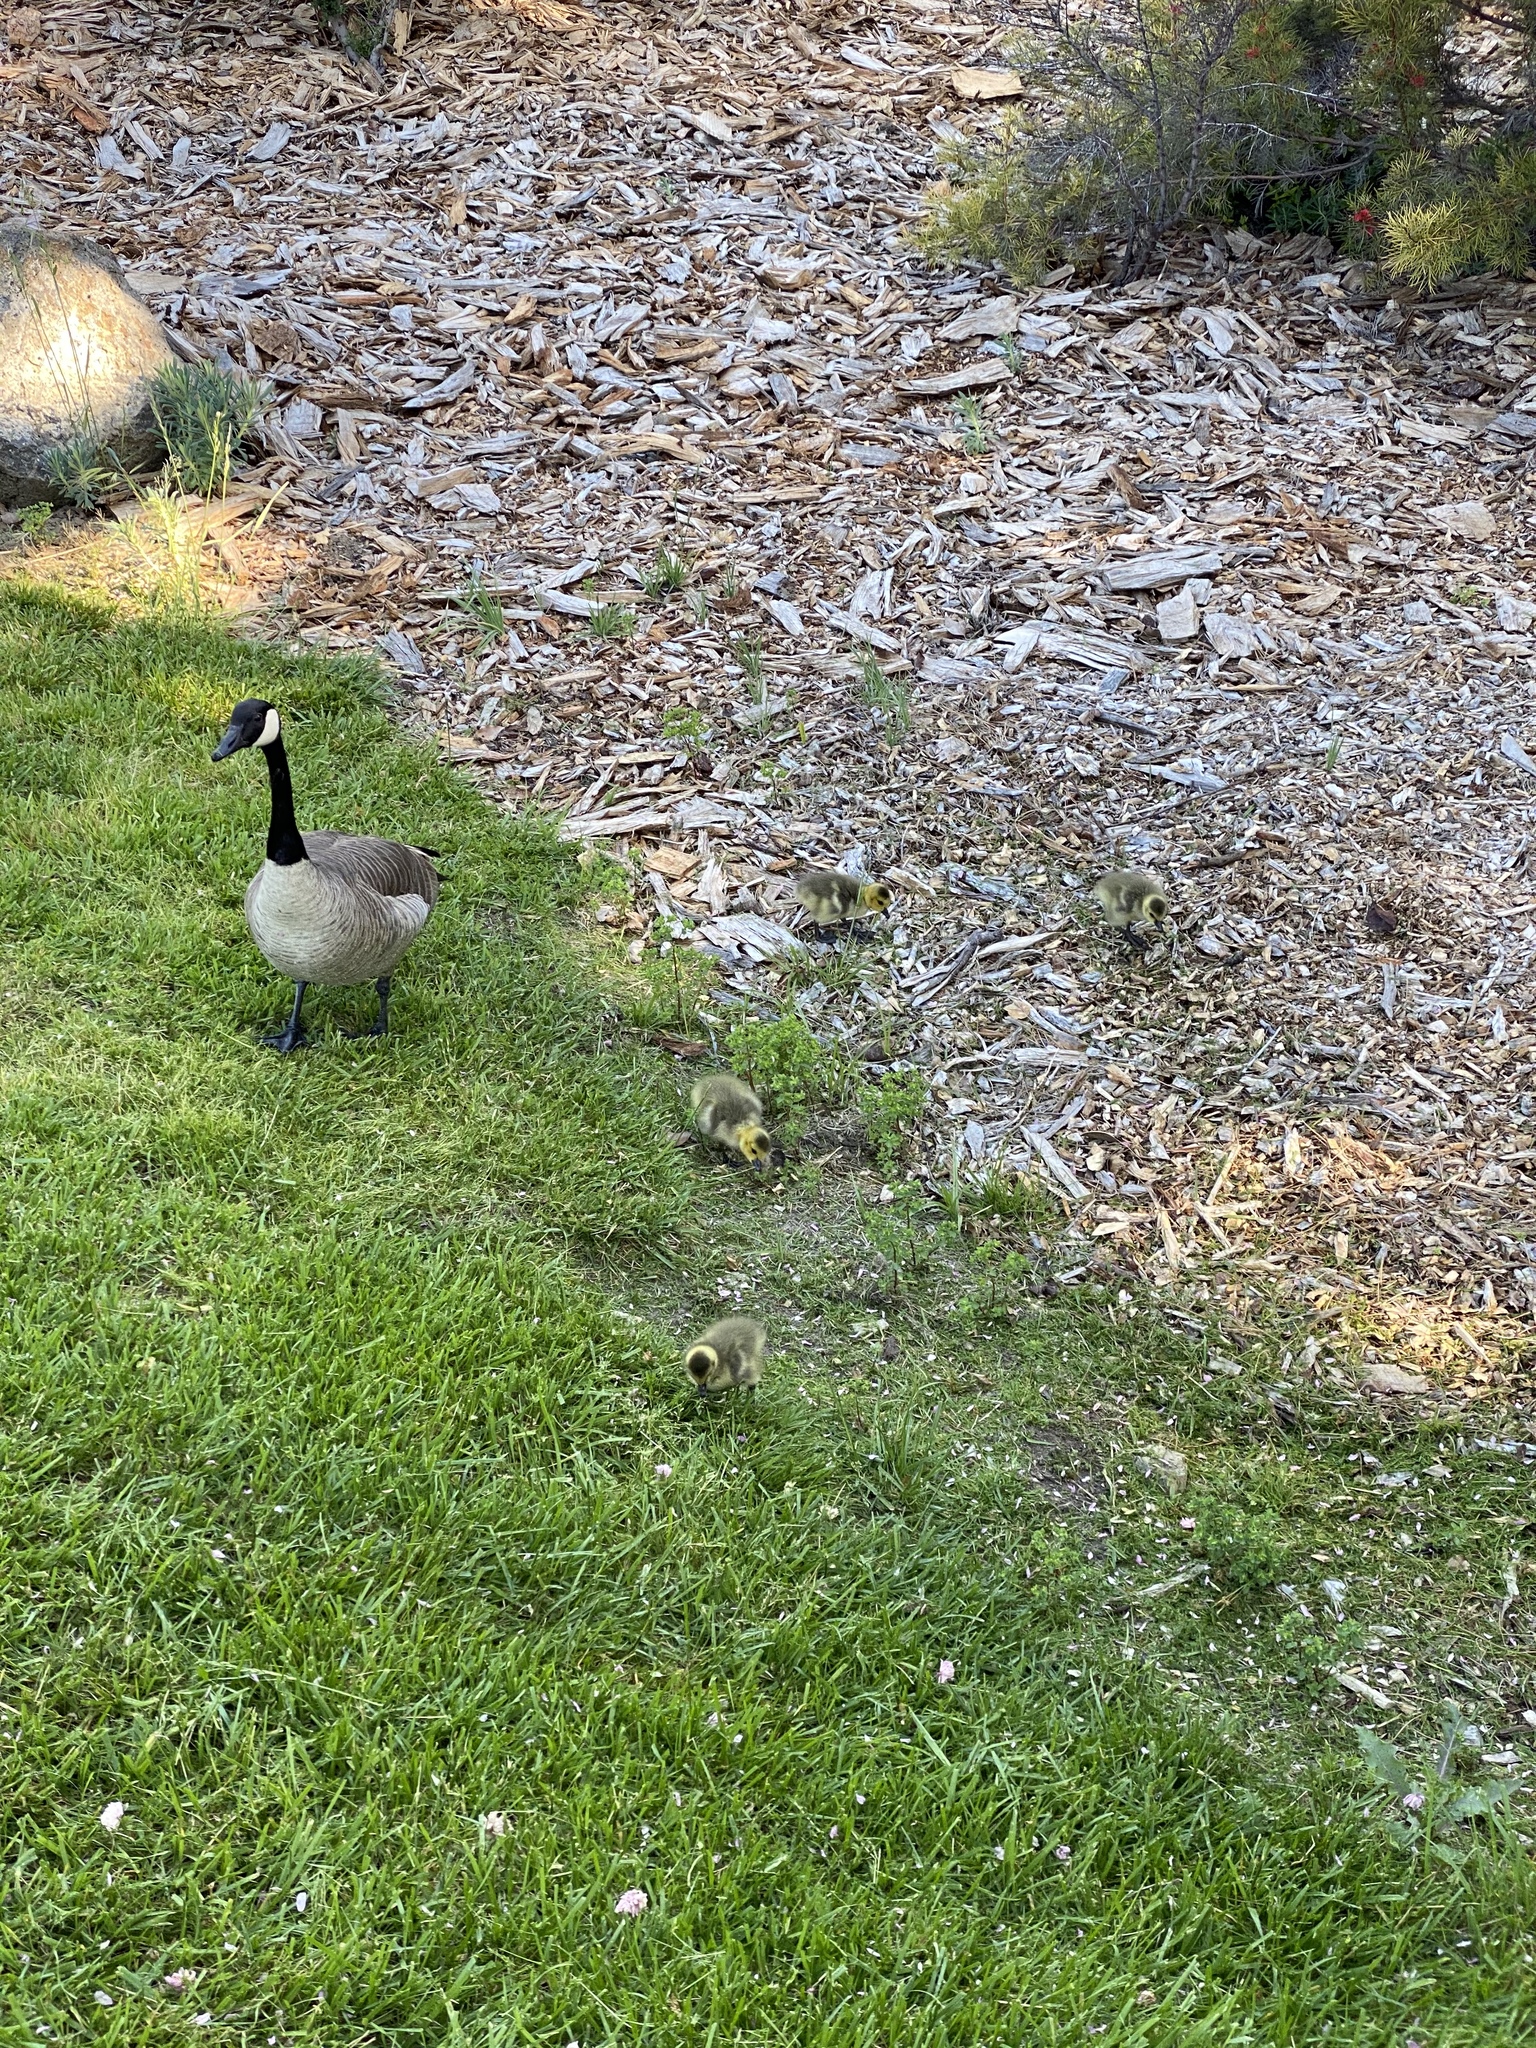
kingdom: Animalia
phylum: Chordata
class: Aves
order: Anseriformes
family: Anatidae
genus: Branta
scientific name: Branta canadensis
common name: Canada goose
